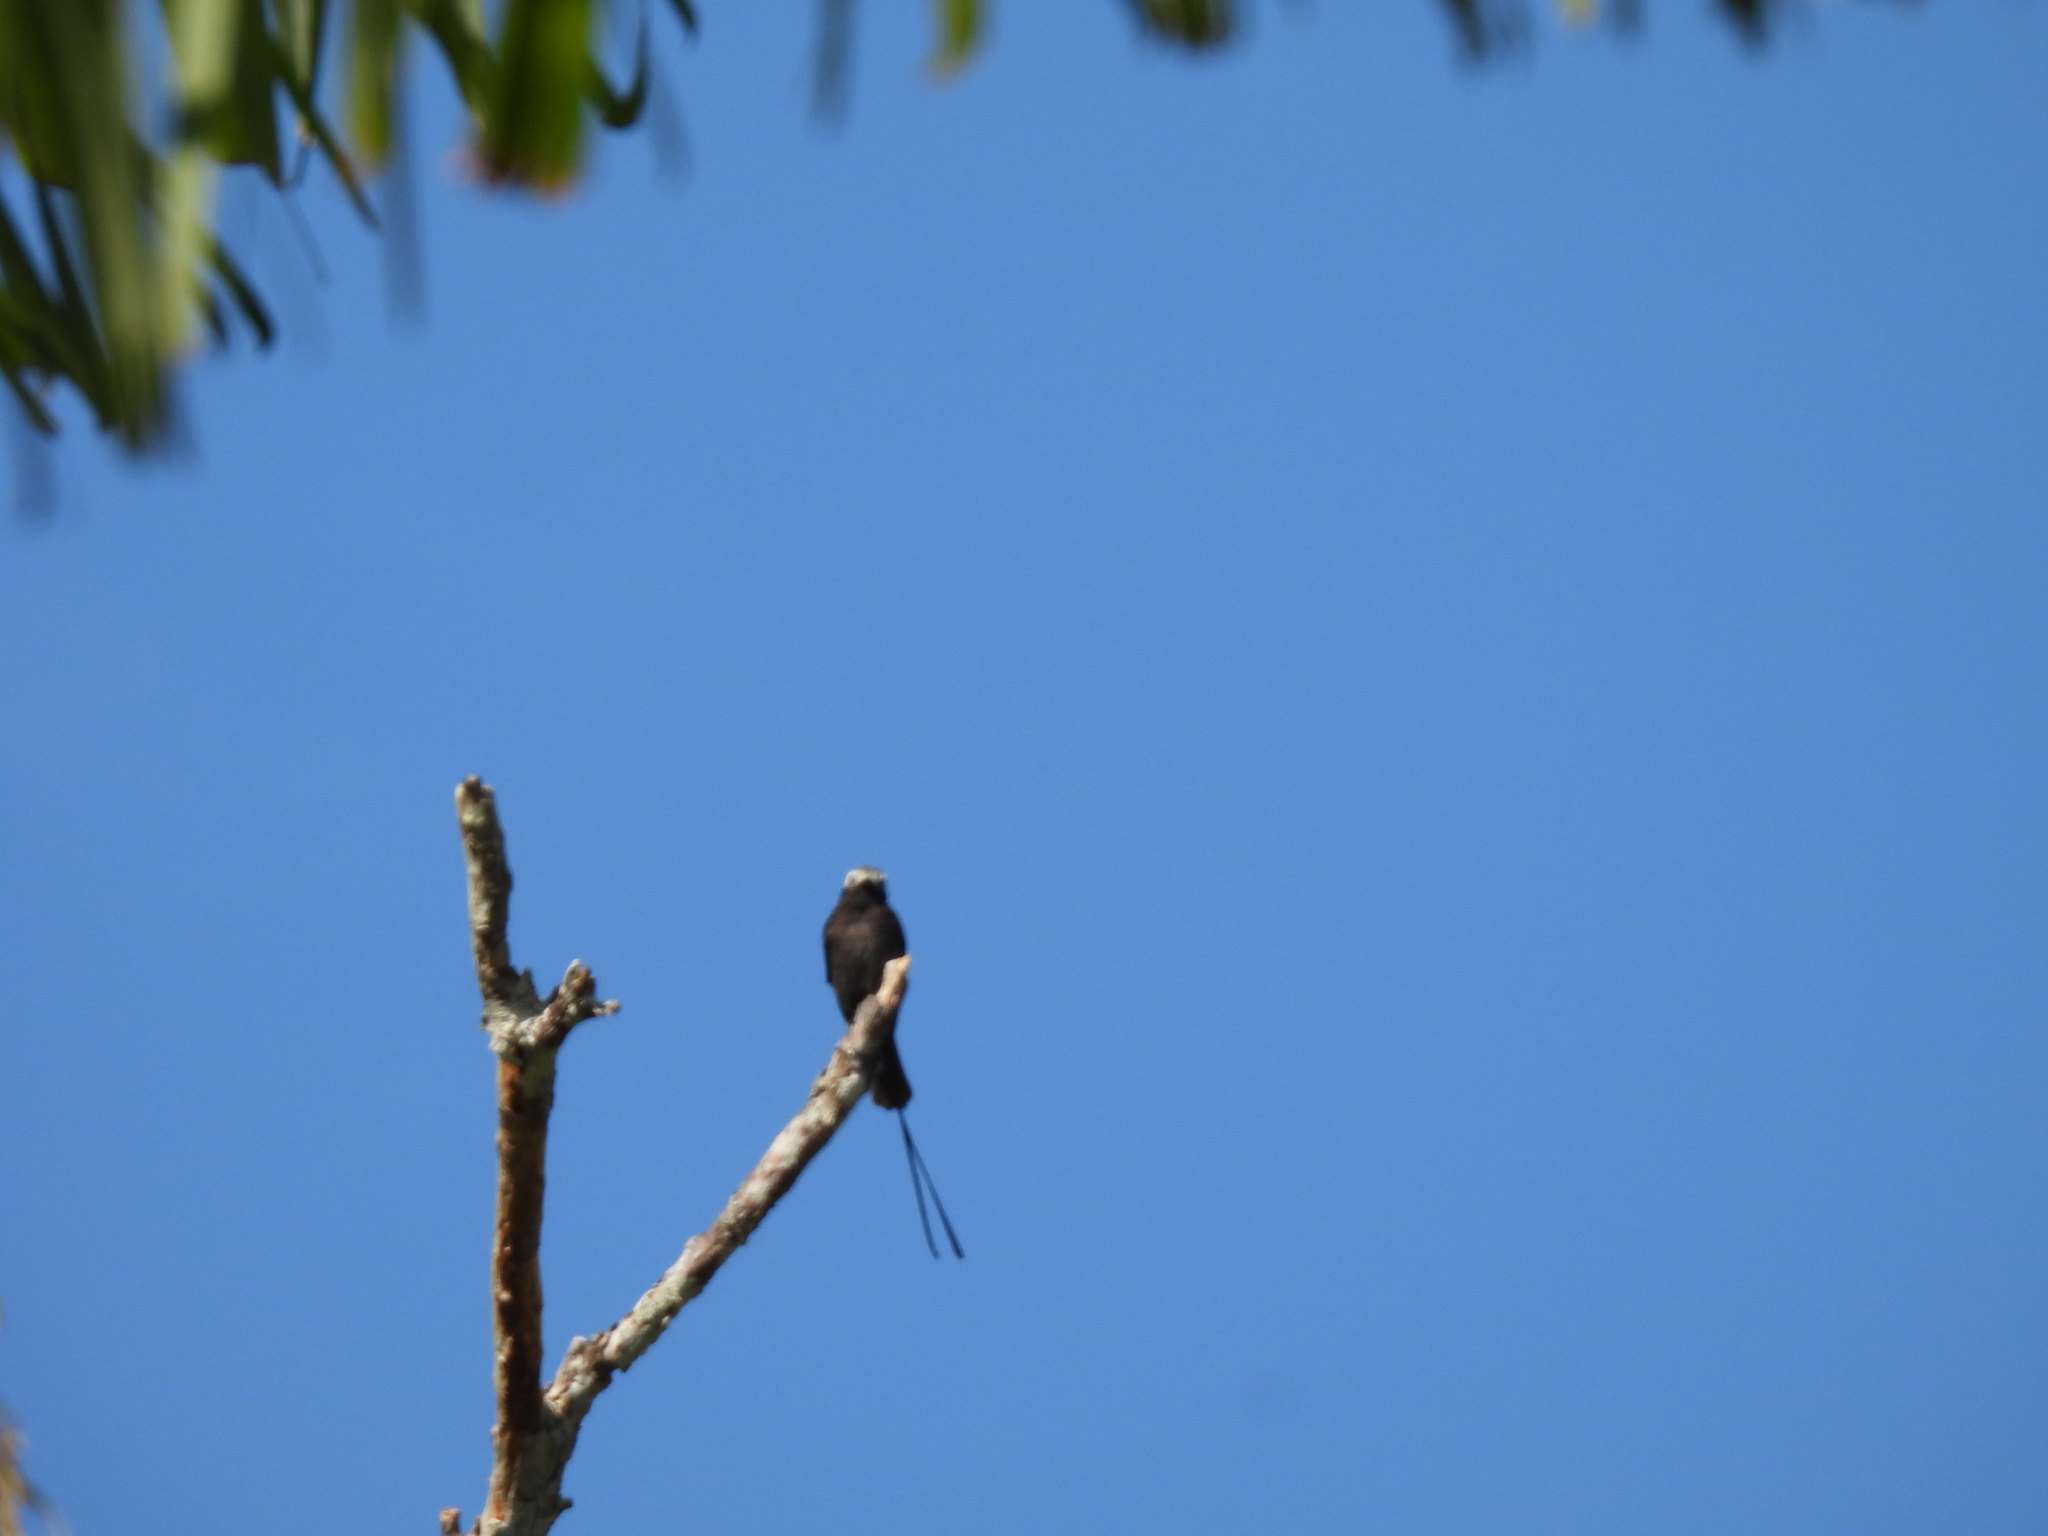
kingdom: Animalia
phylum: Chordata
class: Aves
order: Passeriformes
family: Tyrannidae
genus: Colonia
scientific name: Colonia colonus
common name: Long-tailed tyrant
